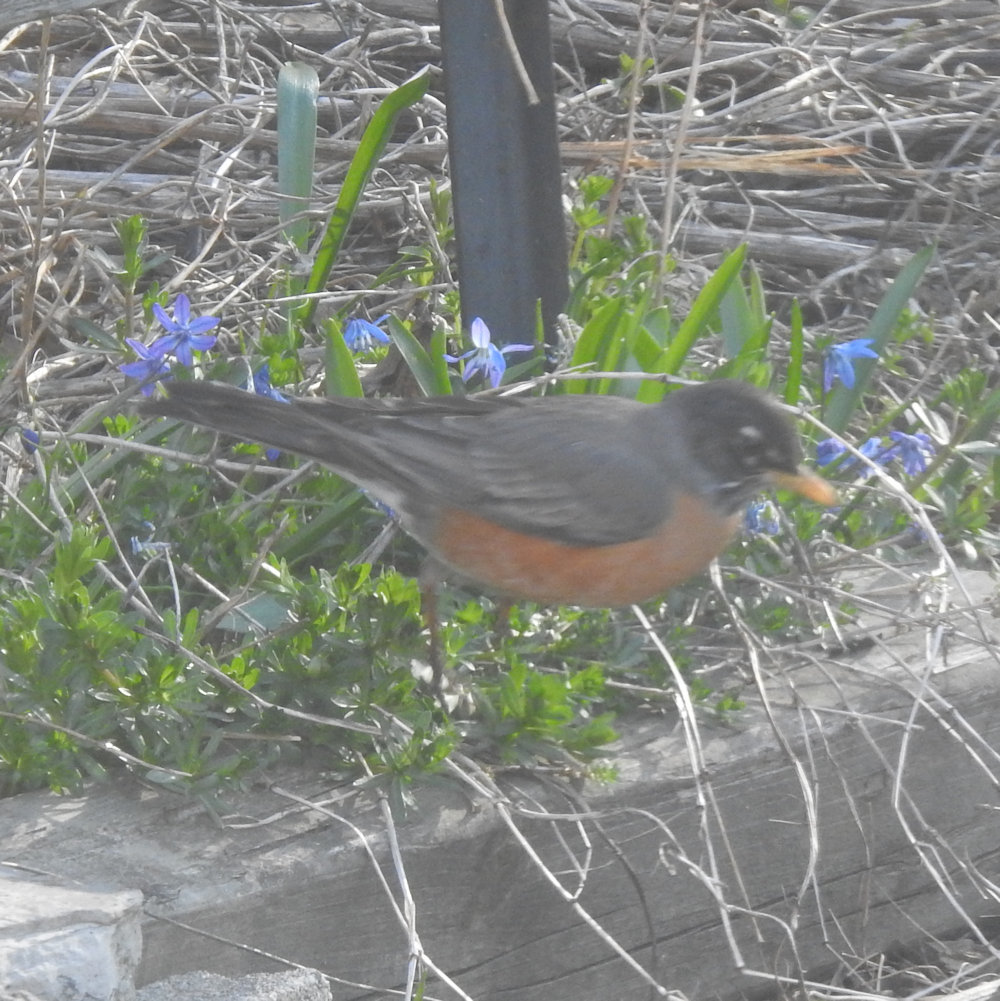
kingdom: Animalia
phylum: Chordata
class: Aves
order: Passeriformes
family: Turdidae
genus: Turdus
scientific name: Turdus migratorius
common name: American robin
